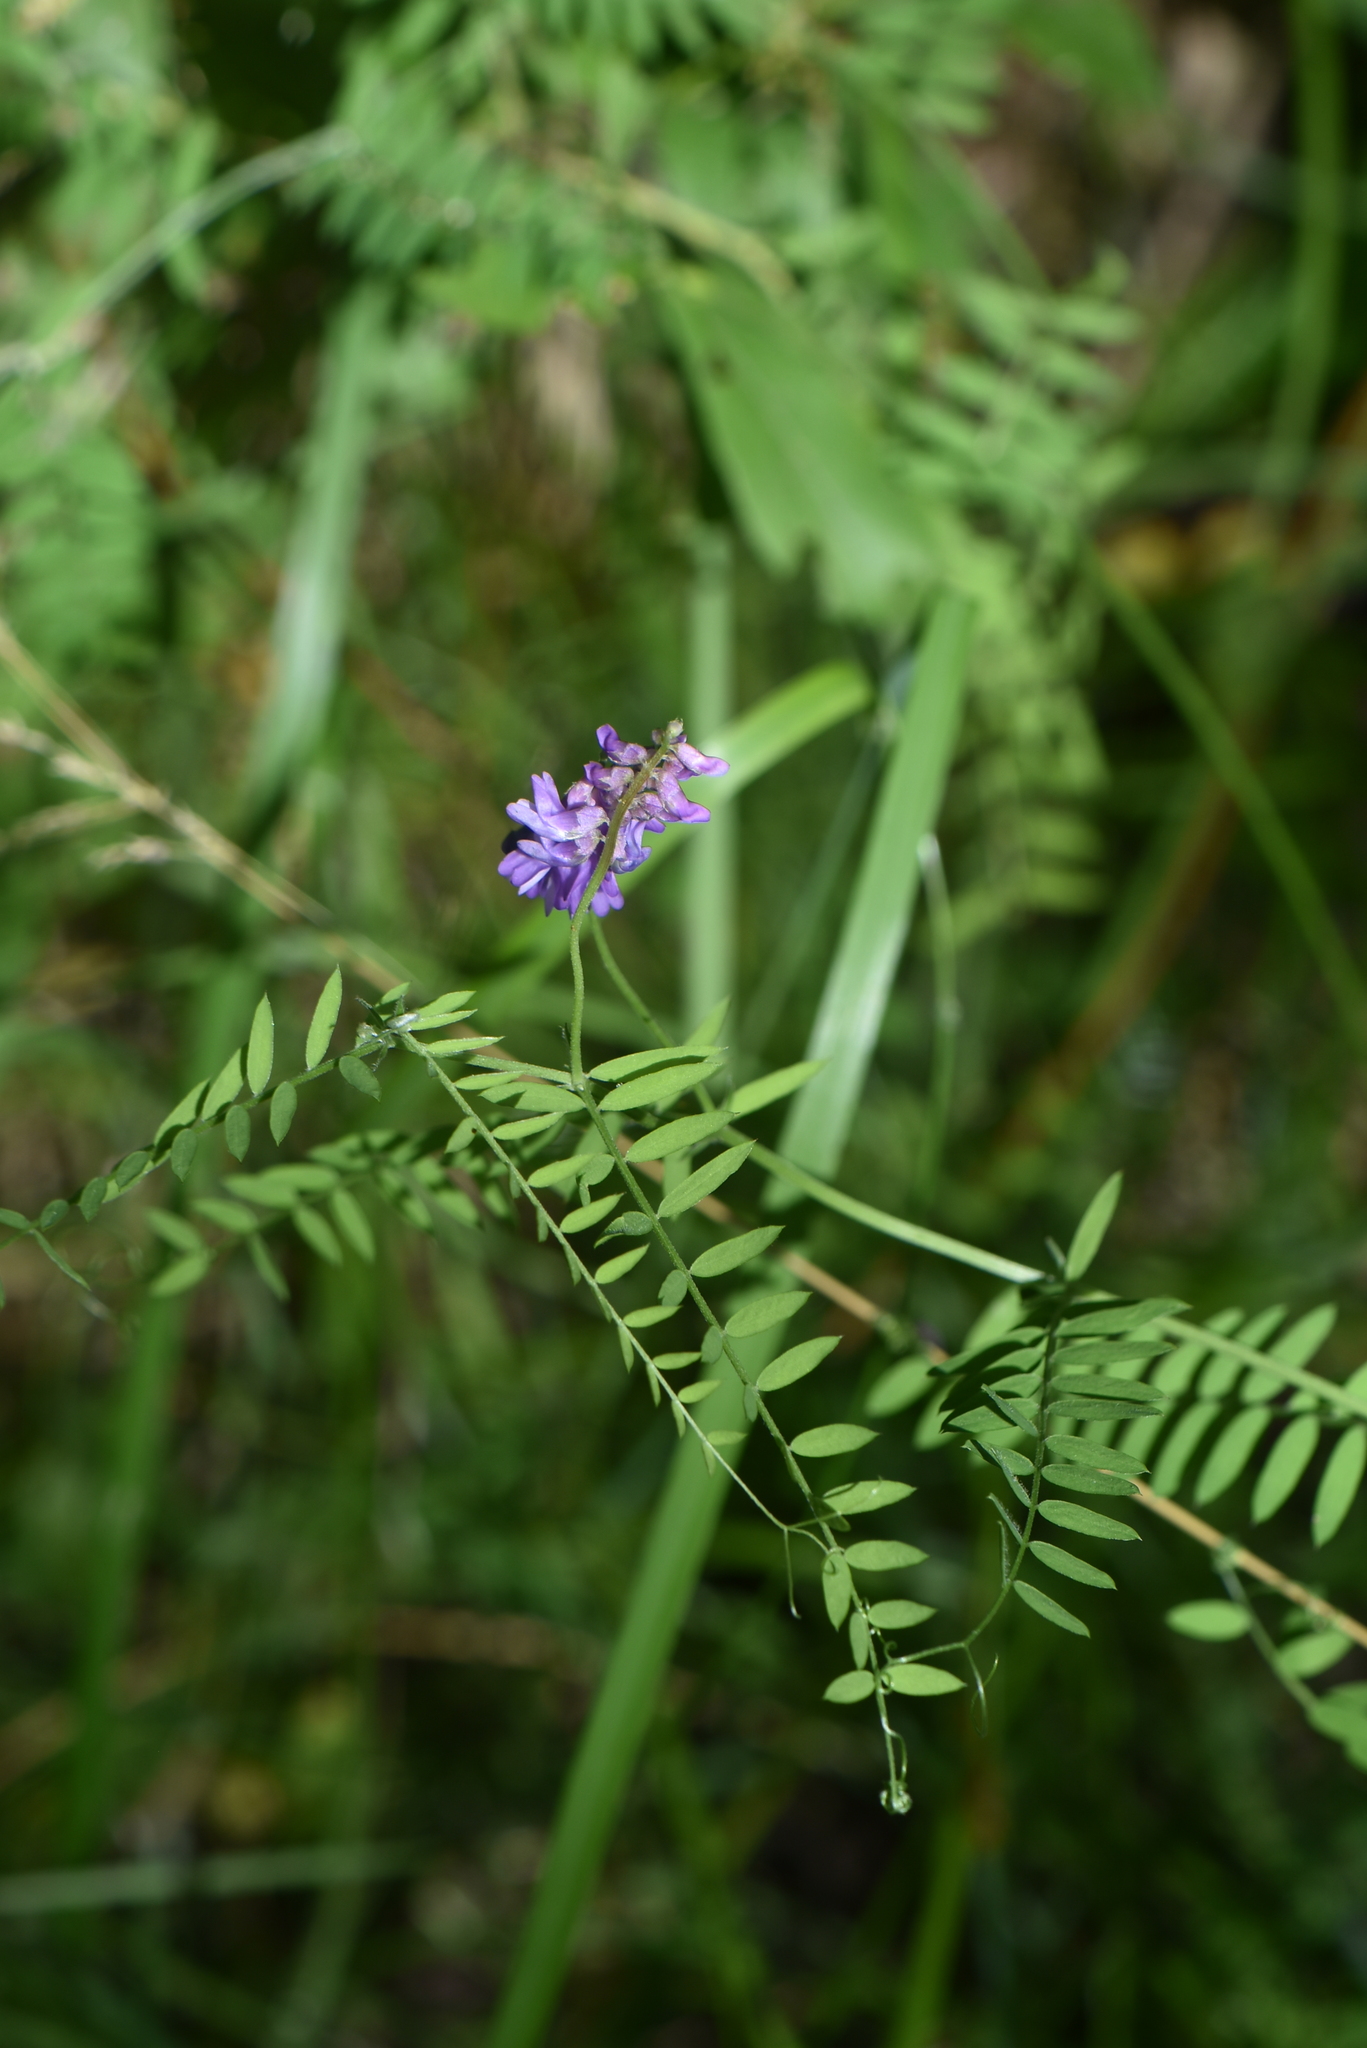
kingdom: Plantae
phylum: Tracheophyta
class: Magnoliopsida
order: Fabales
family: Fabaceae
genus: Vicia
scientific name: Vicia cracca
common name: Bird vetch
